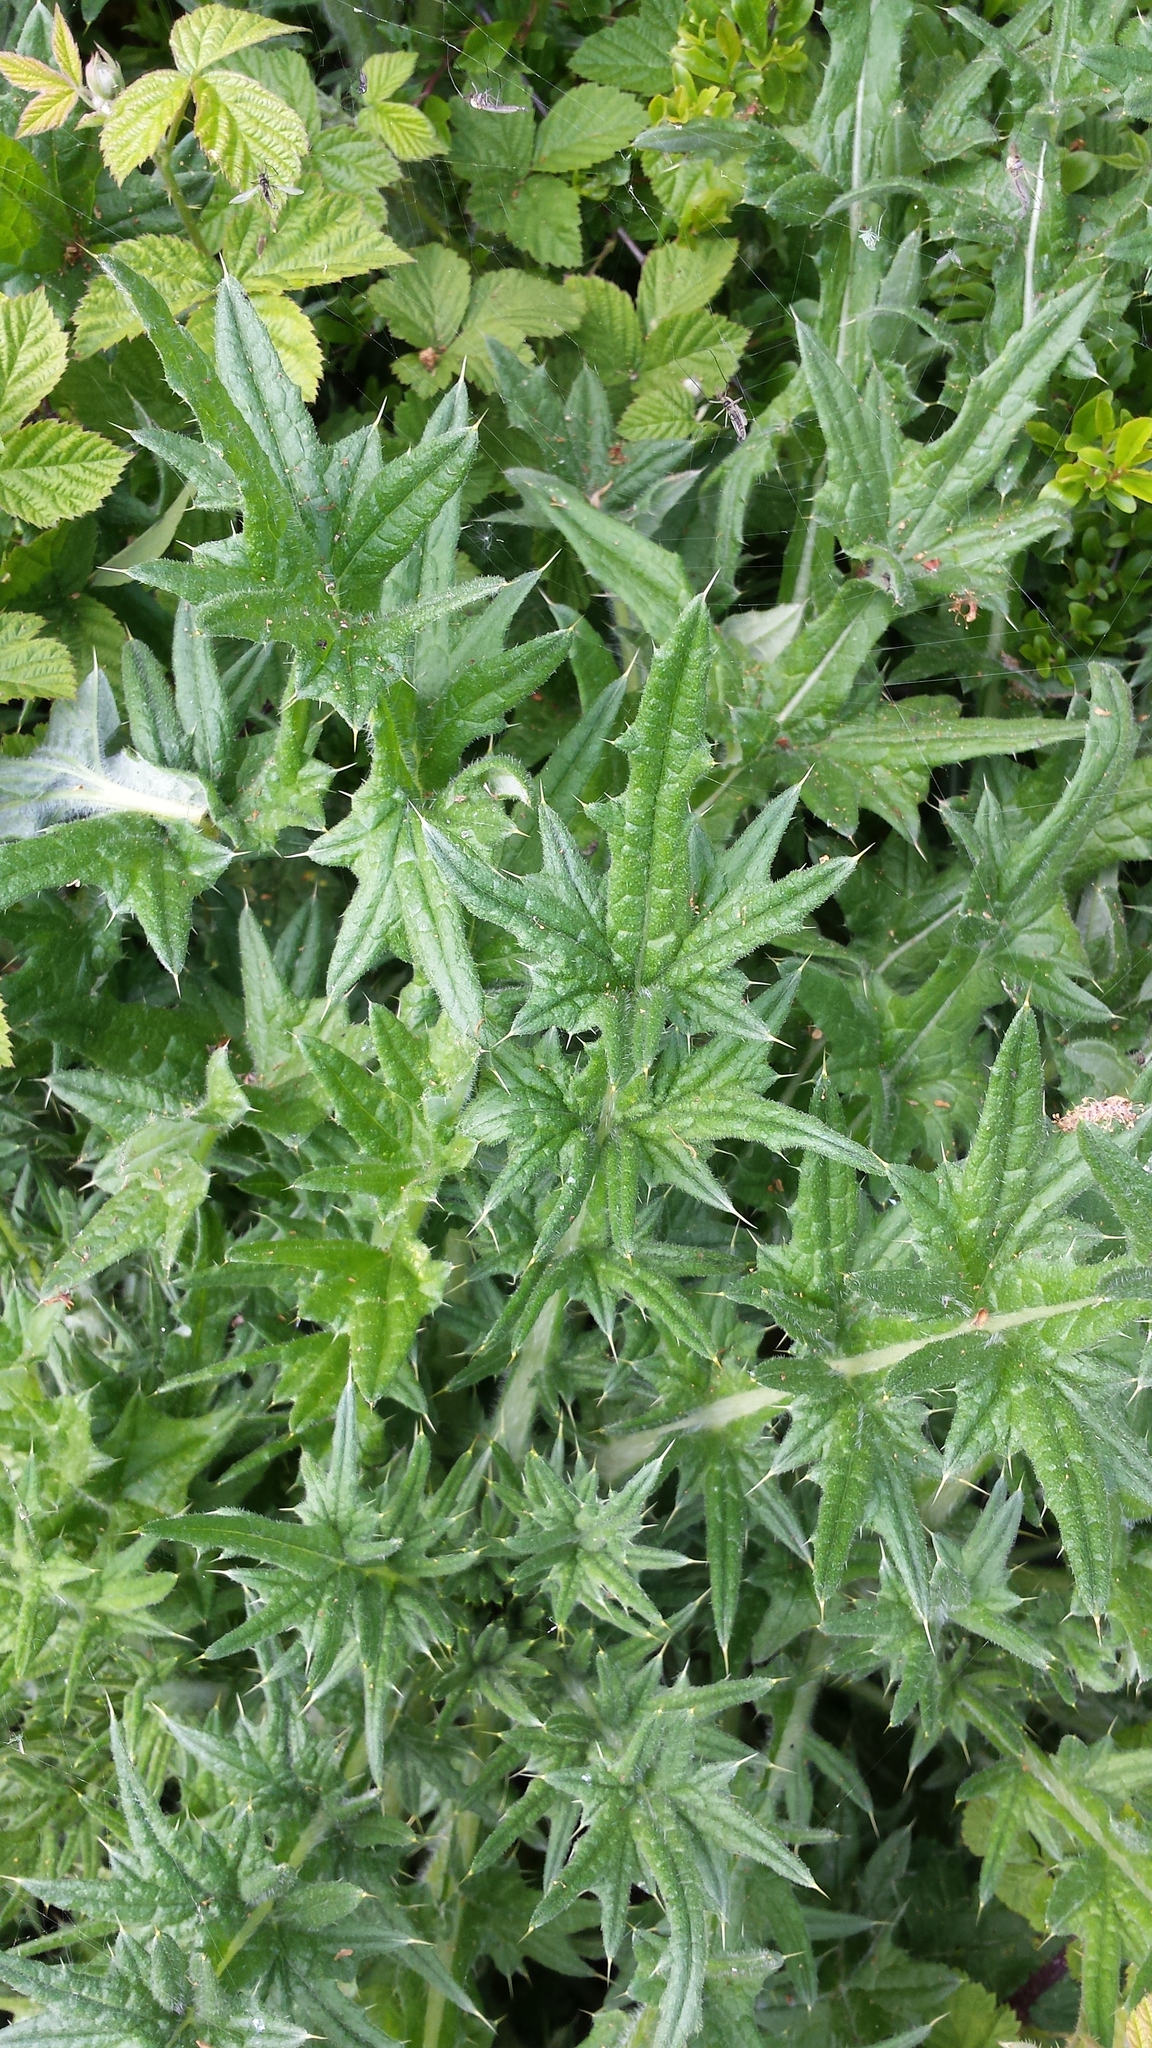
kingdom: Plantae
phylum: Tracheophyta
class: Magnoliopsida
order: Asterales
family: Asteraceae
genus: Cirsium
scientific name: Cirsium vulgare
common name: Bull thistle
